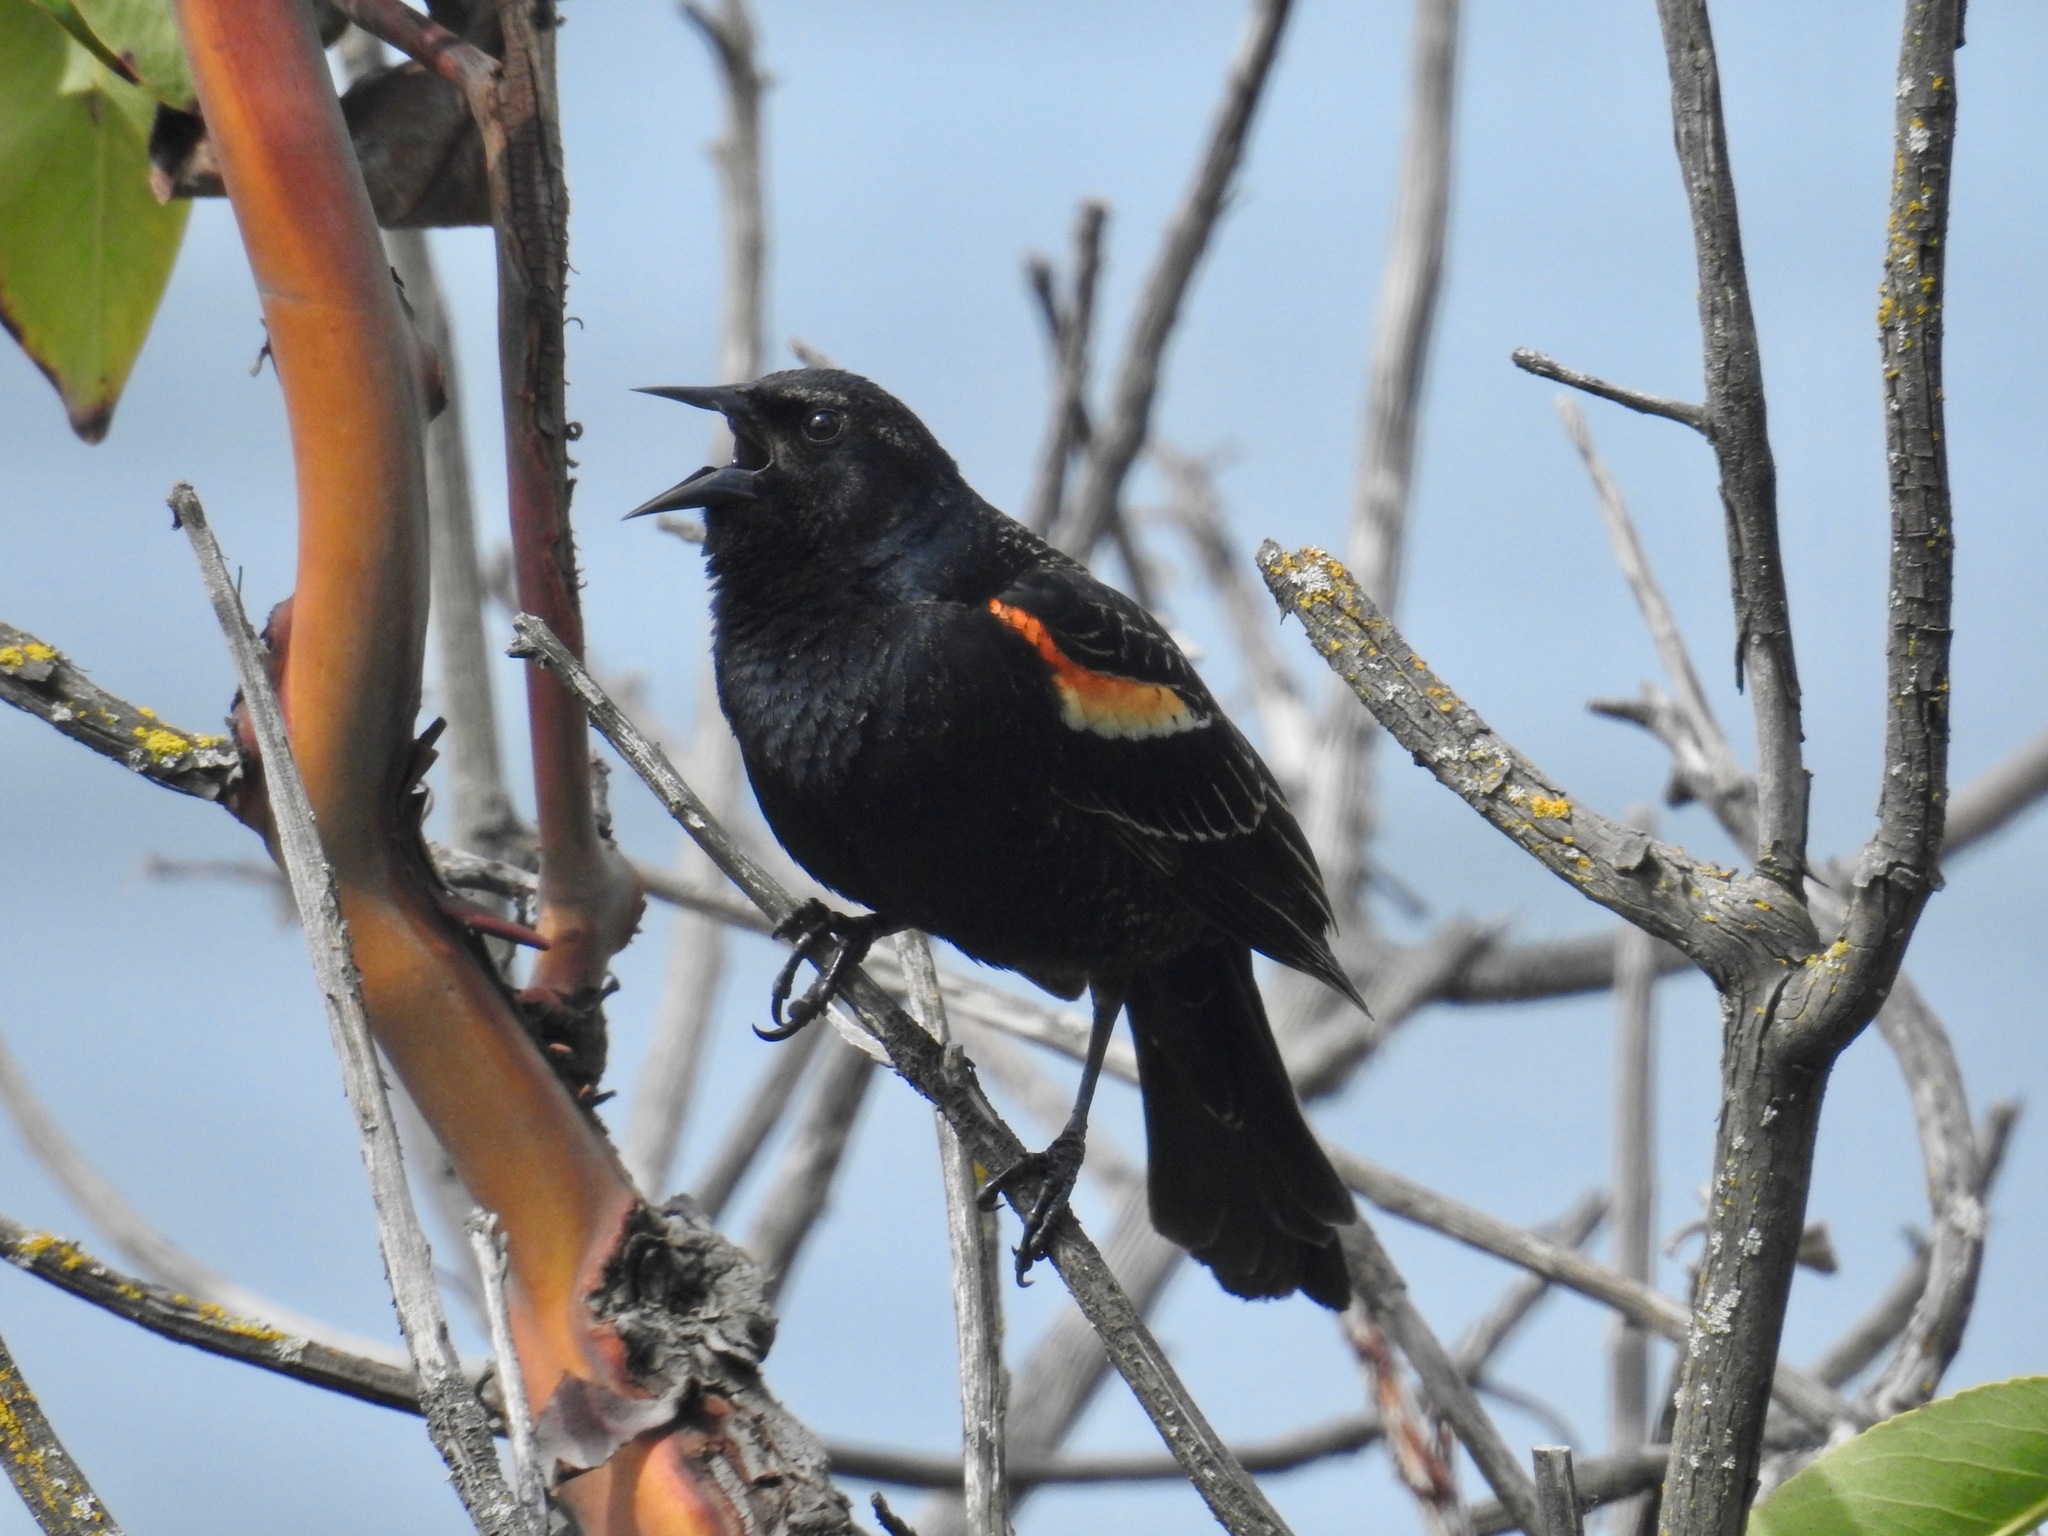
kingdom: Animalia
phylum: Chordata
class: Aves
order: Passeriformes
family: Icteridae
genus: Agelaius
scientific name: Agelaius phoeniceus
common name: Red-winged blackbird
